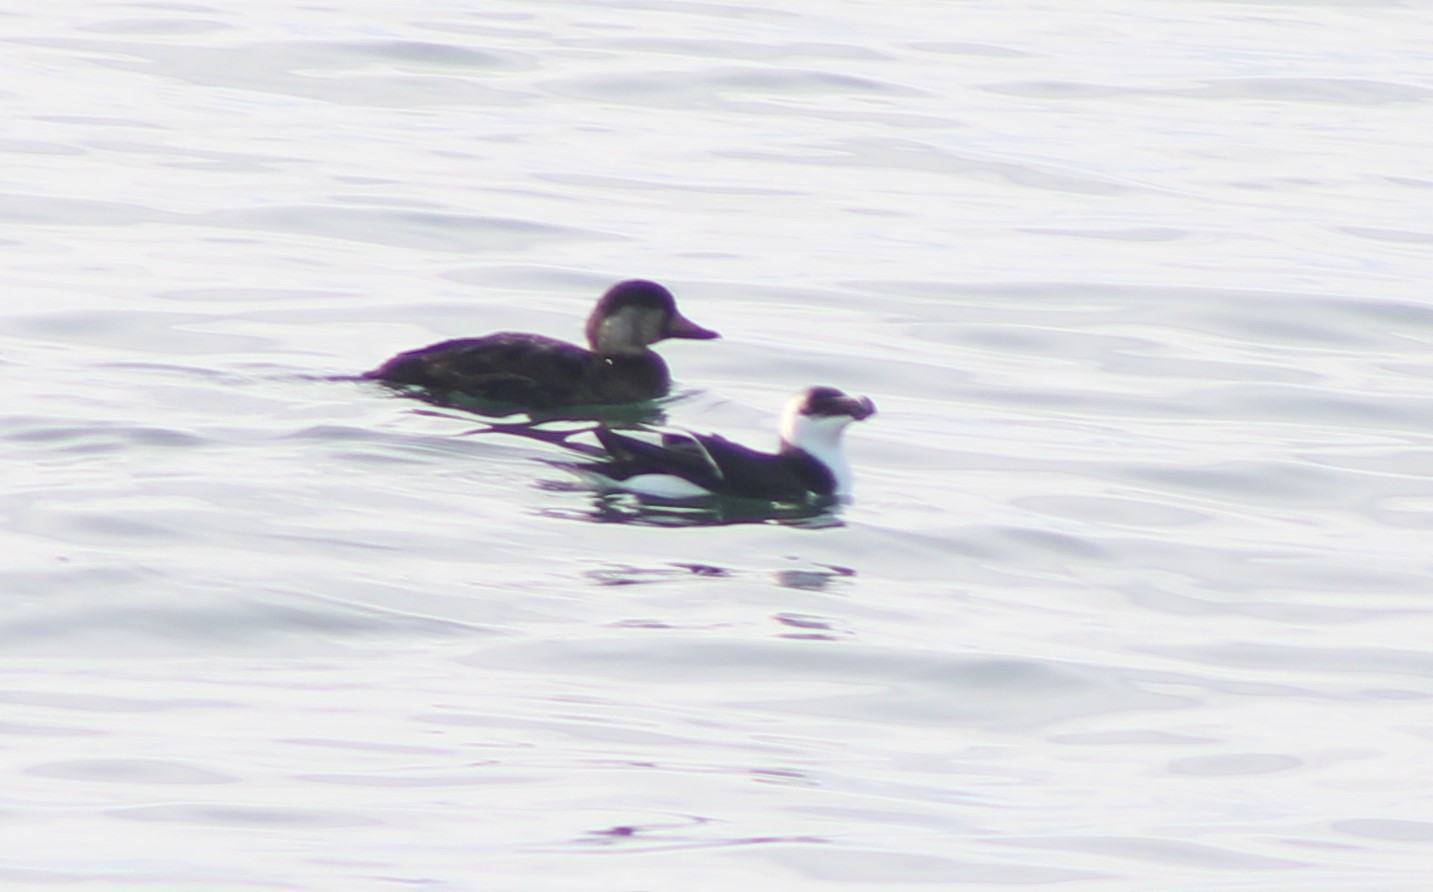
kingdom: Animalia
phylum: Chordata
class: Aves
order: Charadriiformes
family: Alcidae
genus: Alca
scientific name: Alca torda
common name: Razorbill
